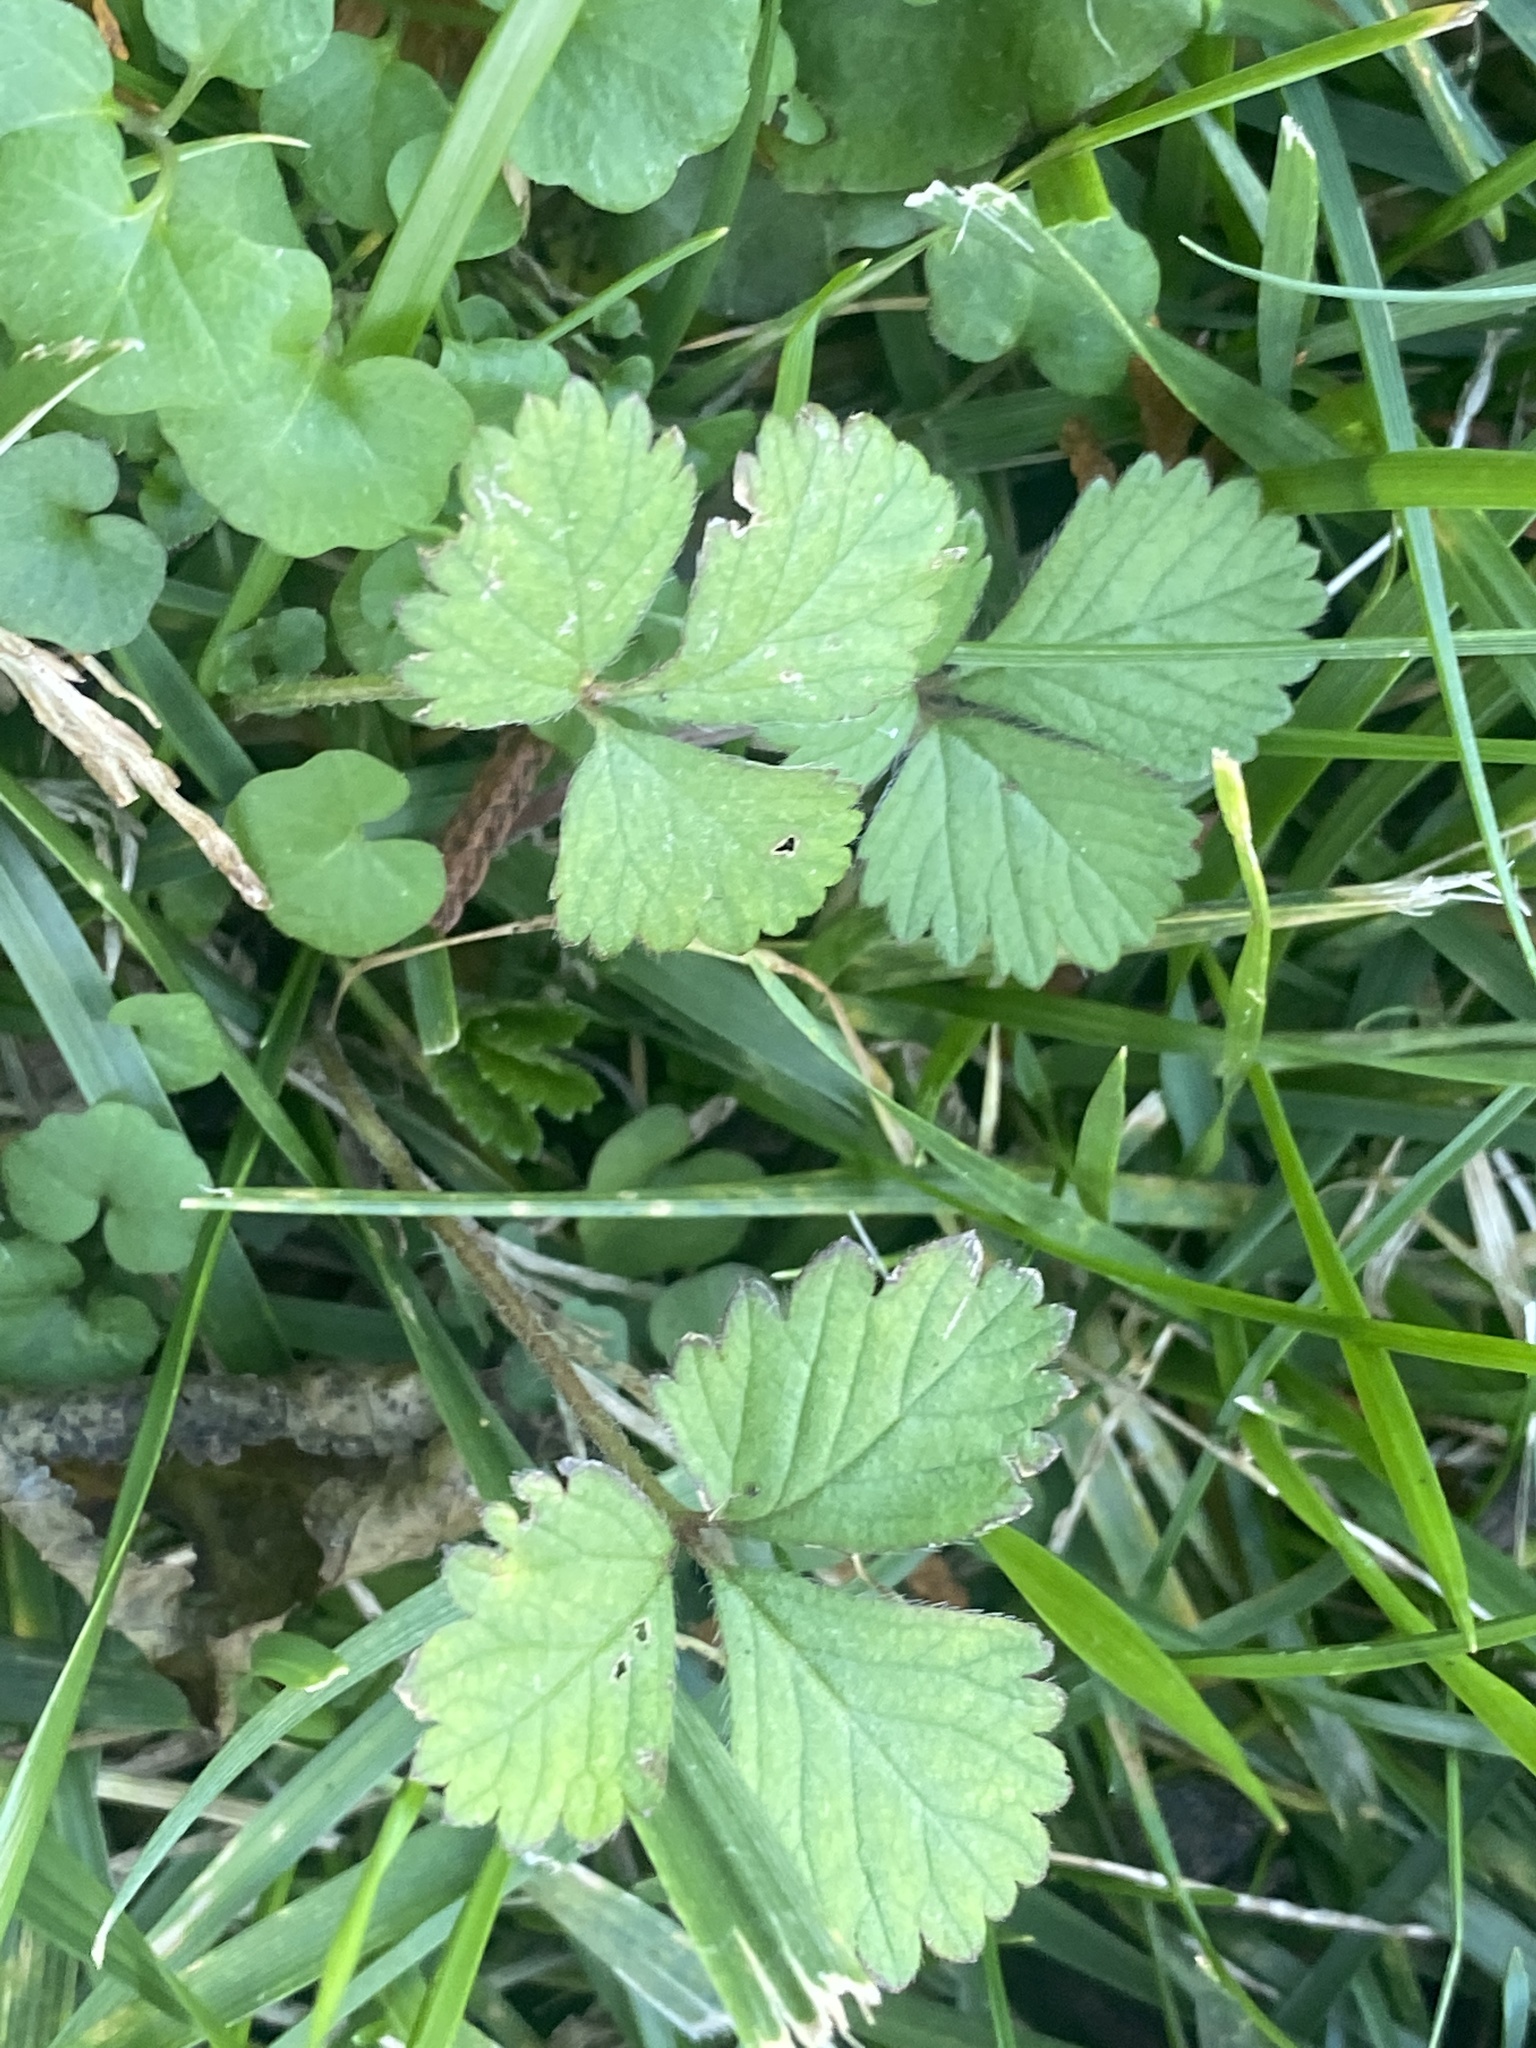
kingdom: Plantae
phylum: Tracheophyta
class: Magnoliopsida
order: Rosales
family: Rosaceae
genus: Potentilla
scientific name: Potentilla indica
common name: Yellow-flowered strawberry
